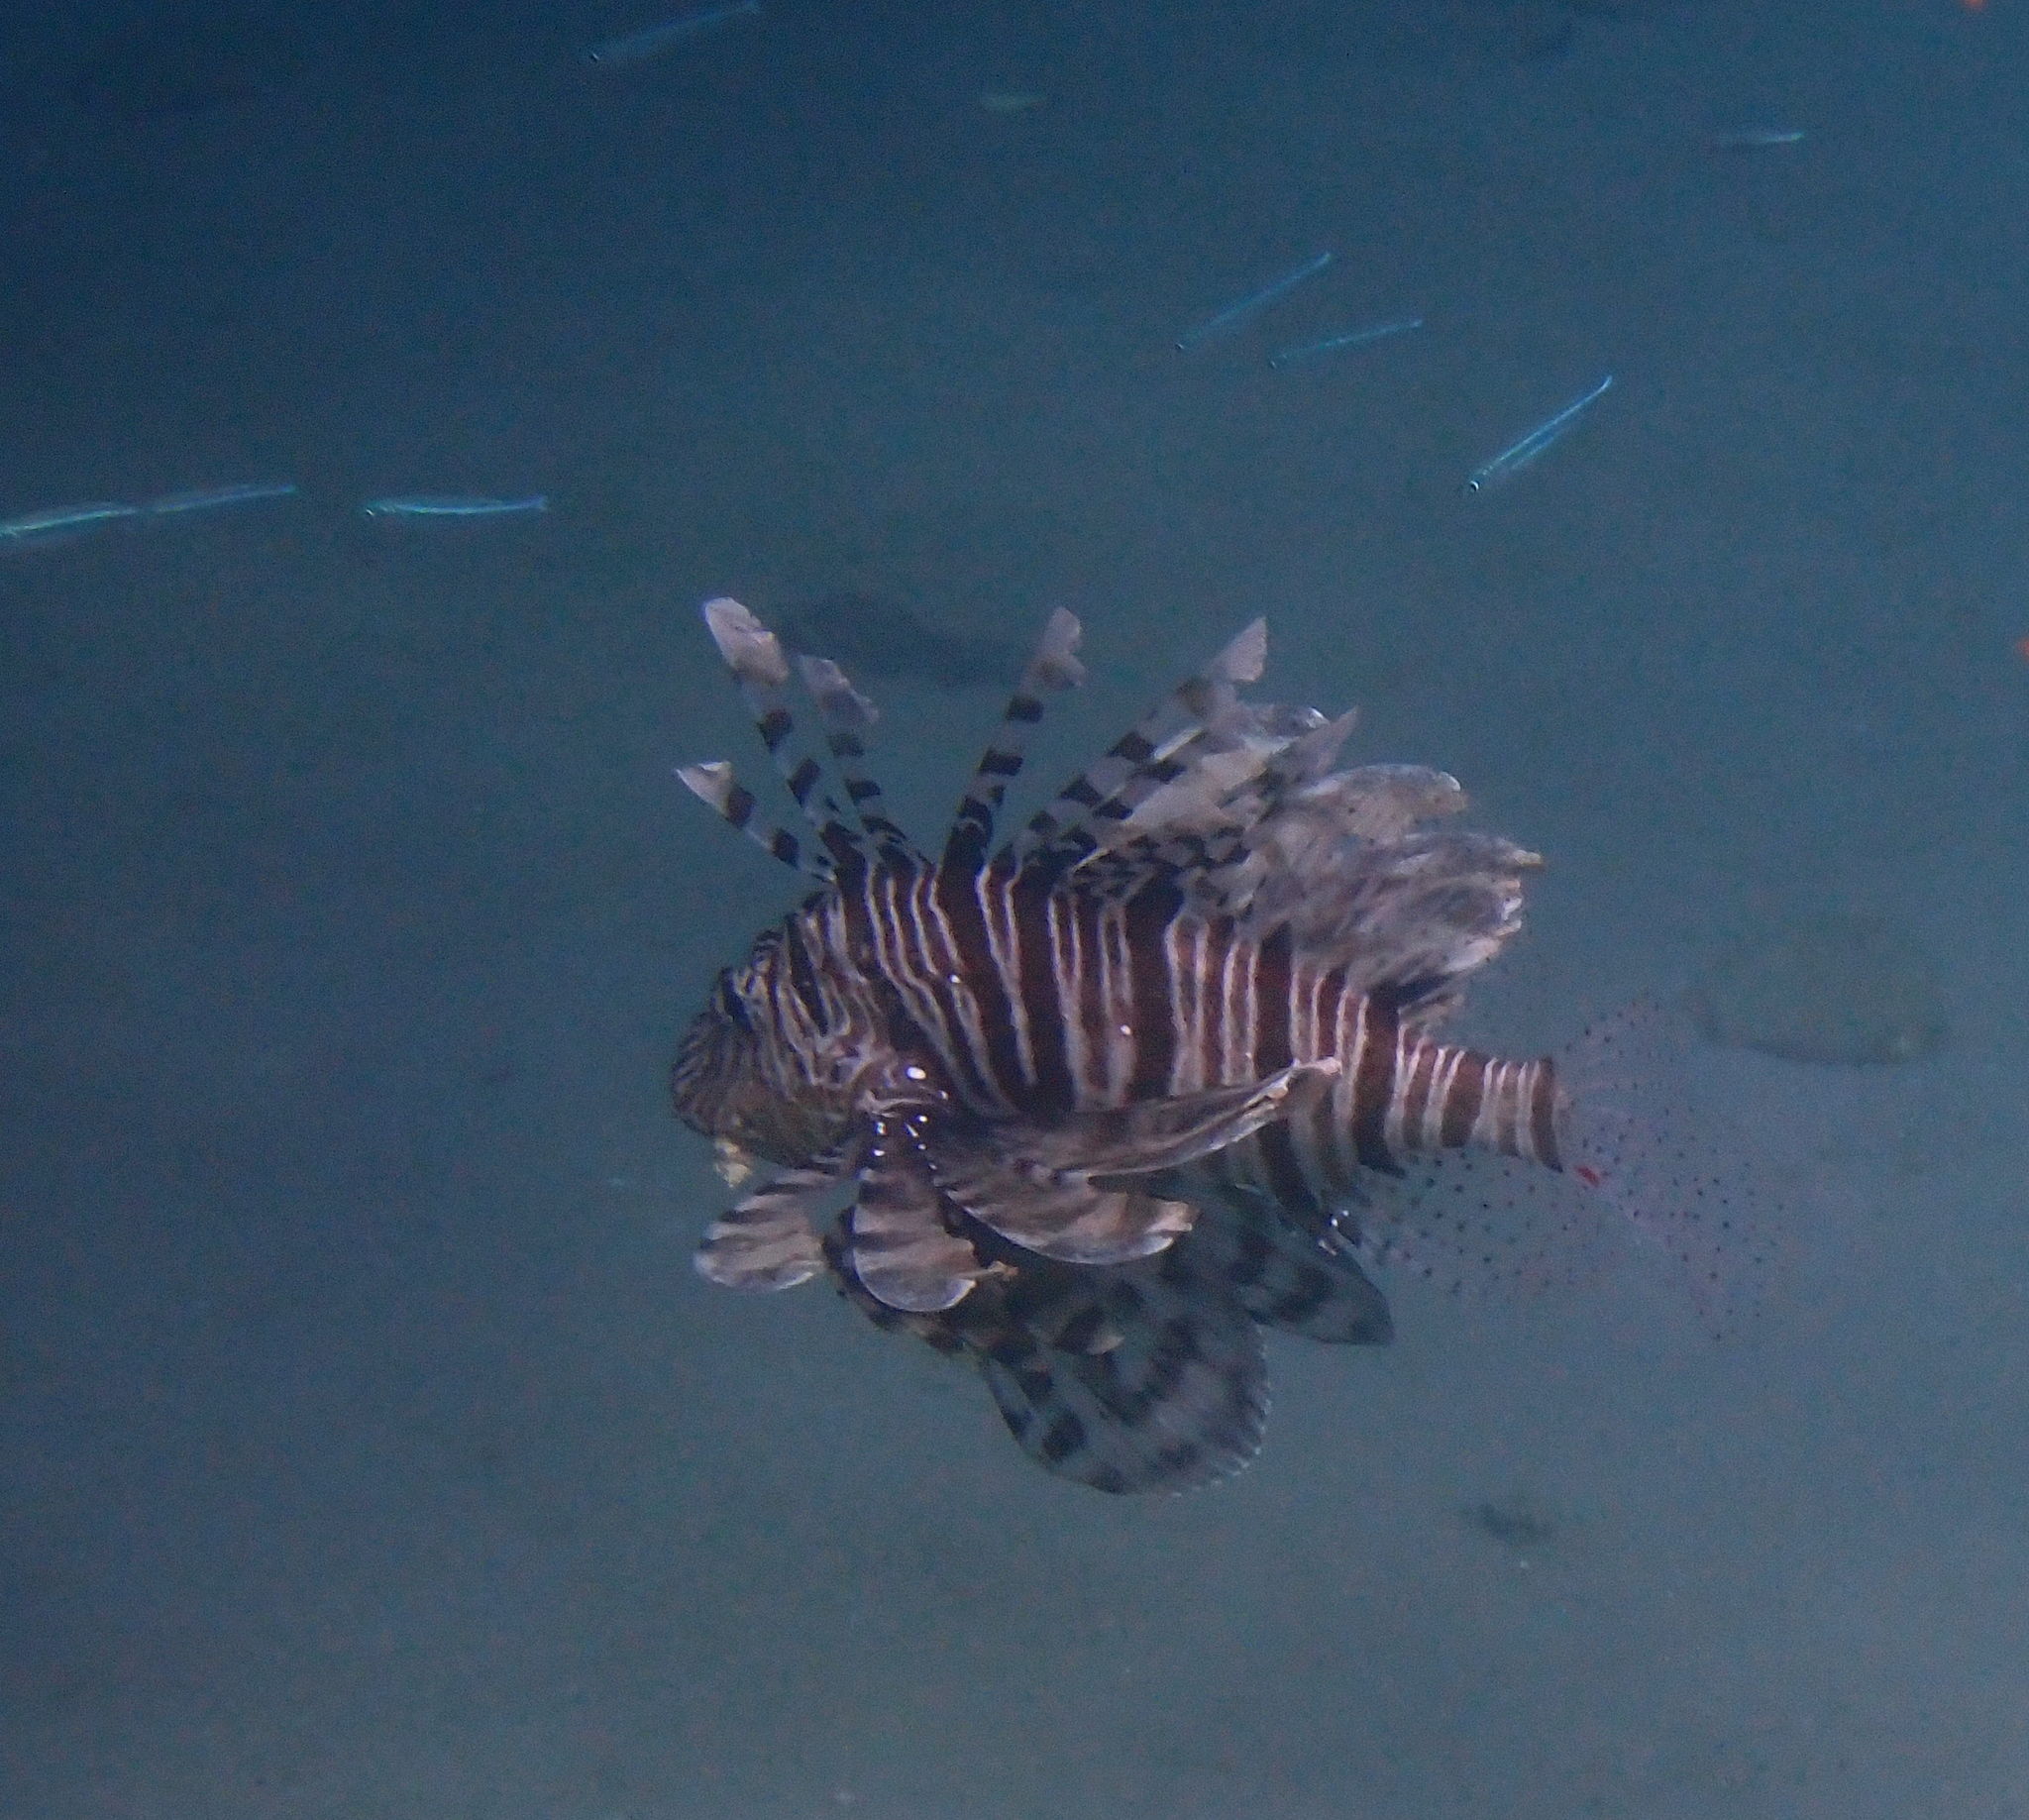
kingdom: Animalia
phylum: Chordata
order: Scorpaeniformes
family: Scorpaenidae
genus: Pterois
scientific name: Pterois miles
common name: Devil firefish
